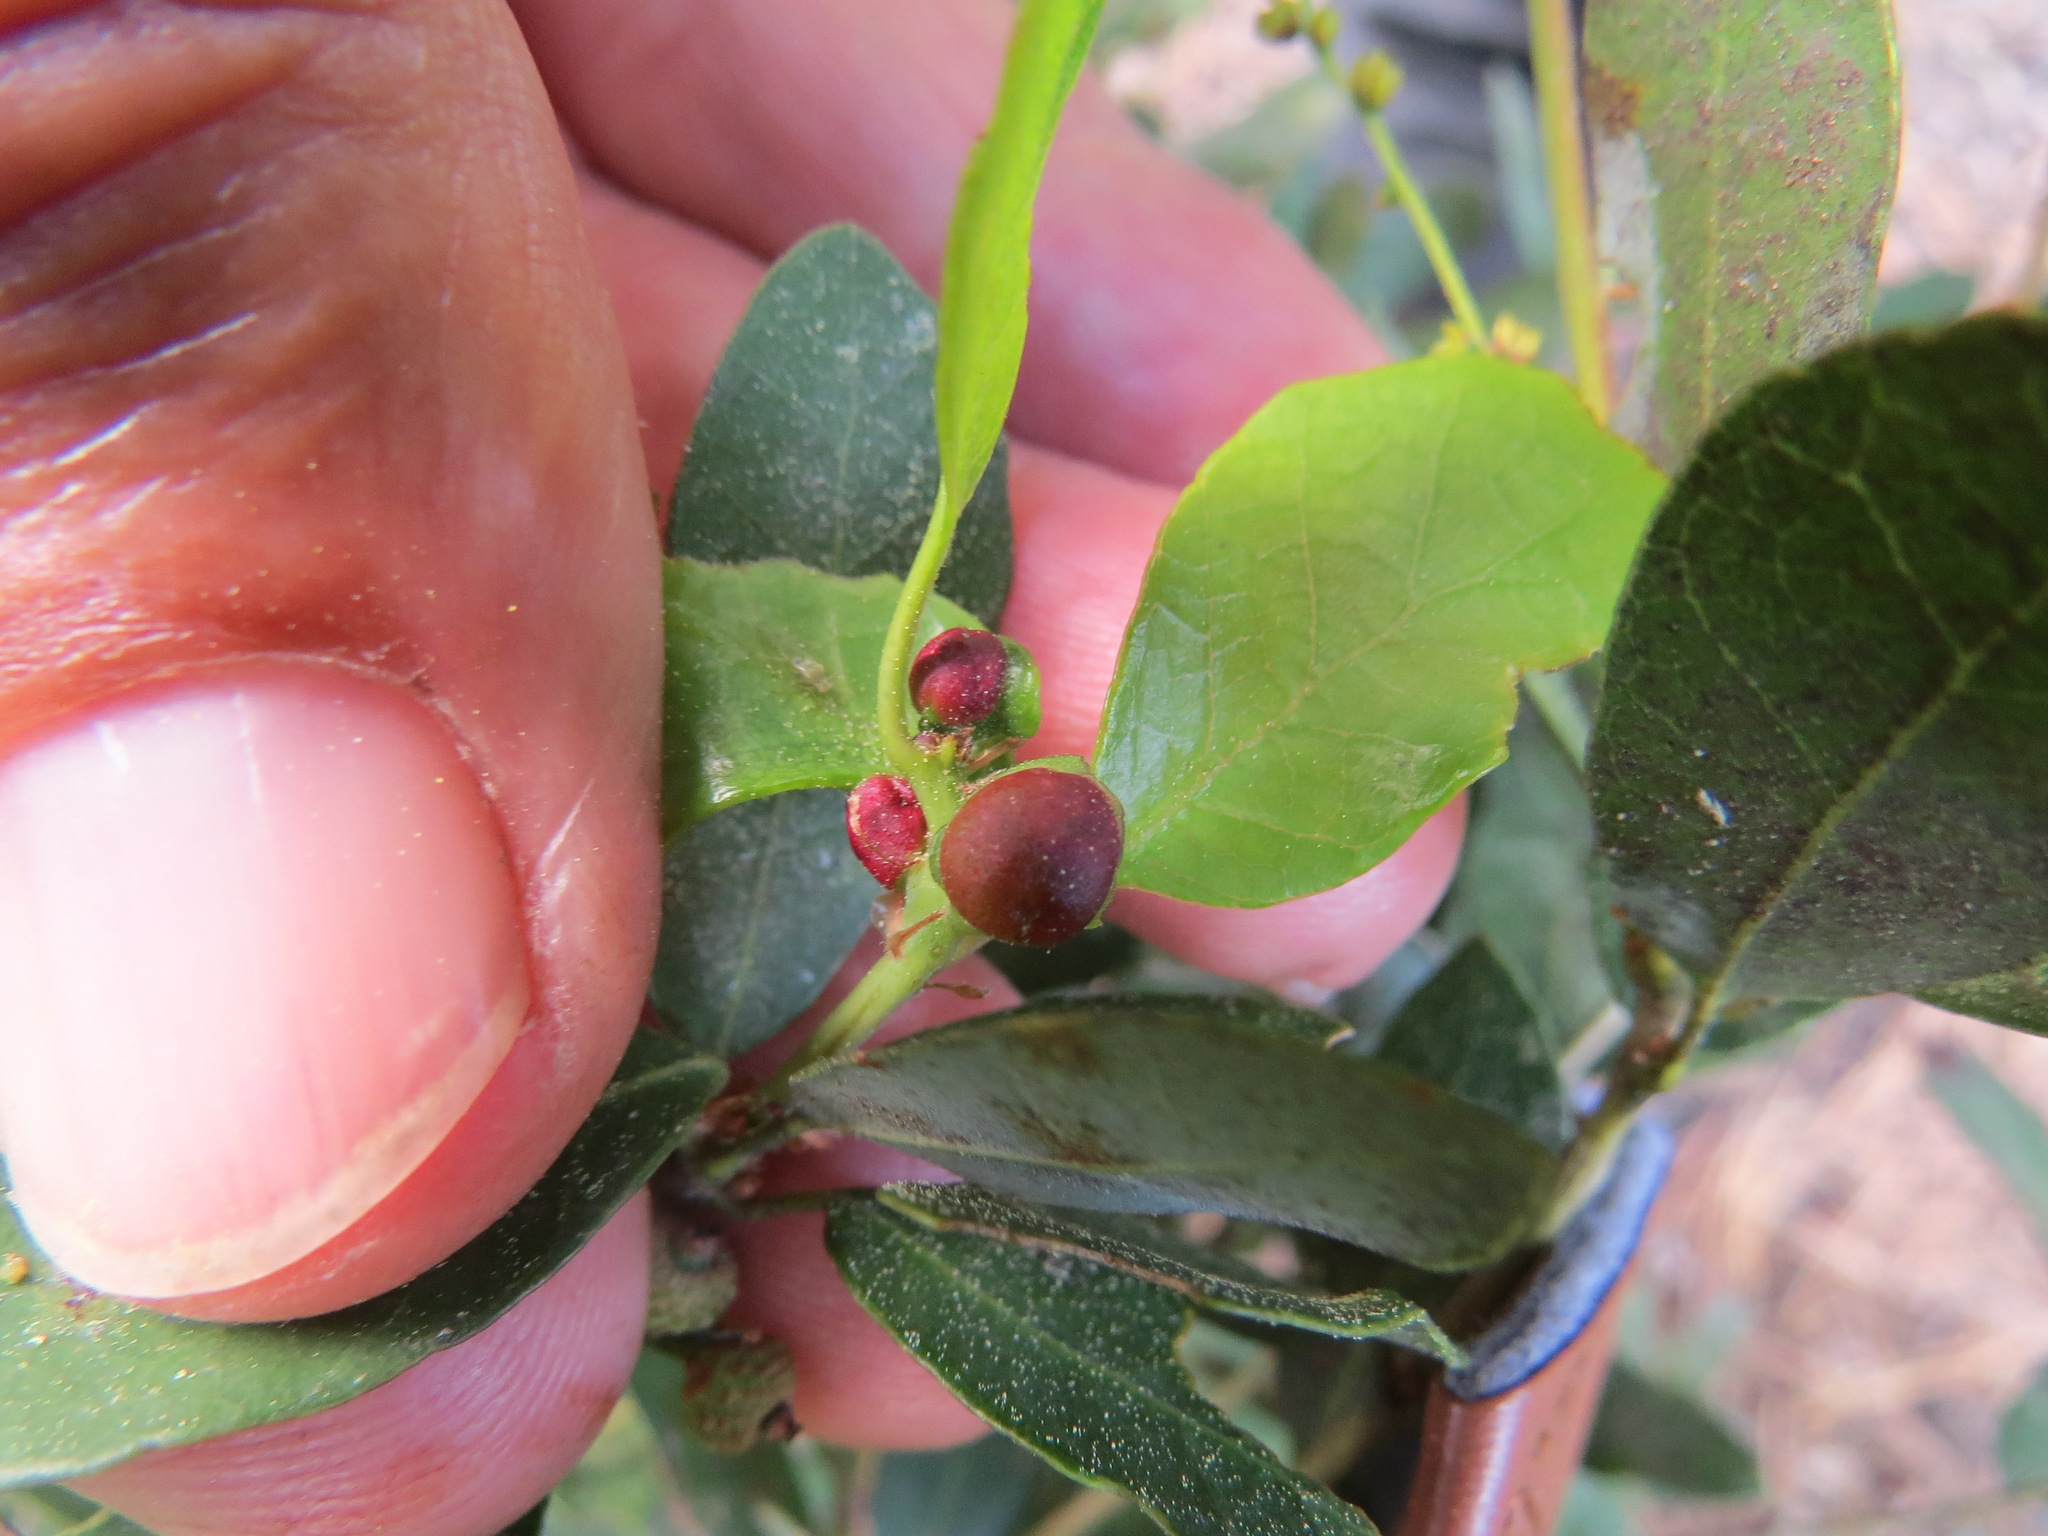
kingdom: Animalia
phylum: Arthropoda
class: Insecta
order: Hymenoptera
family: Cynipidae
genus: Heteroecus
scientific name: Heteroecus
